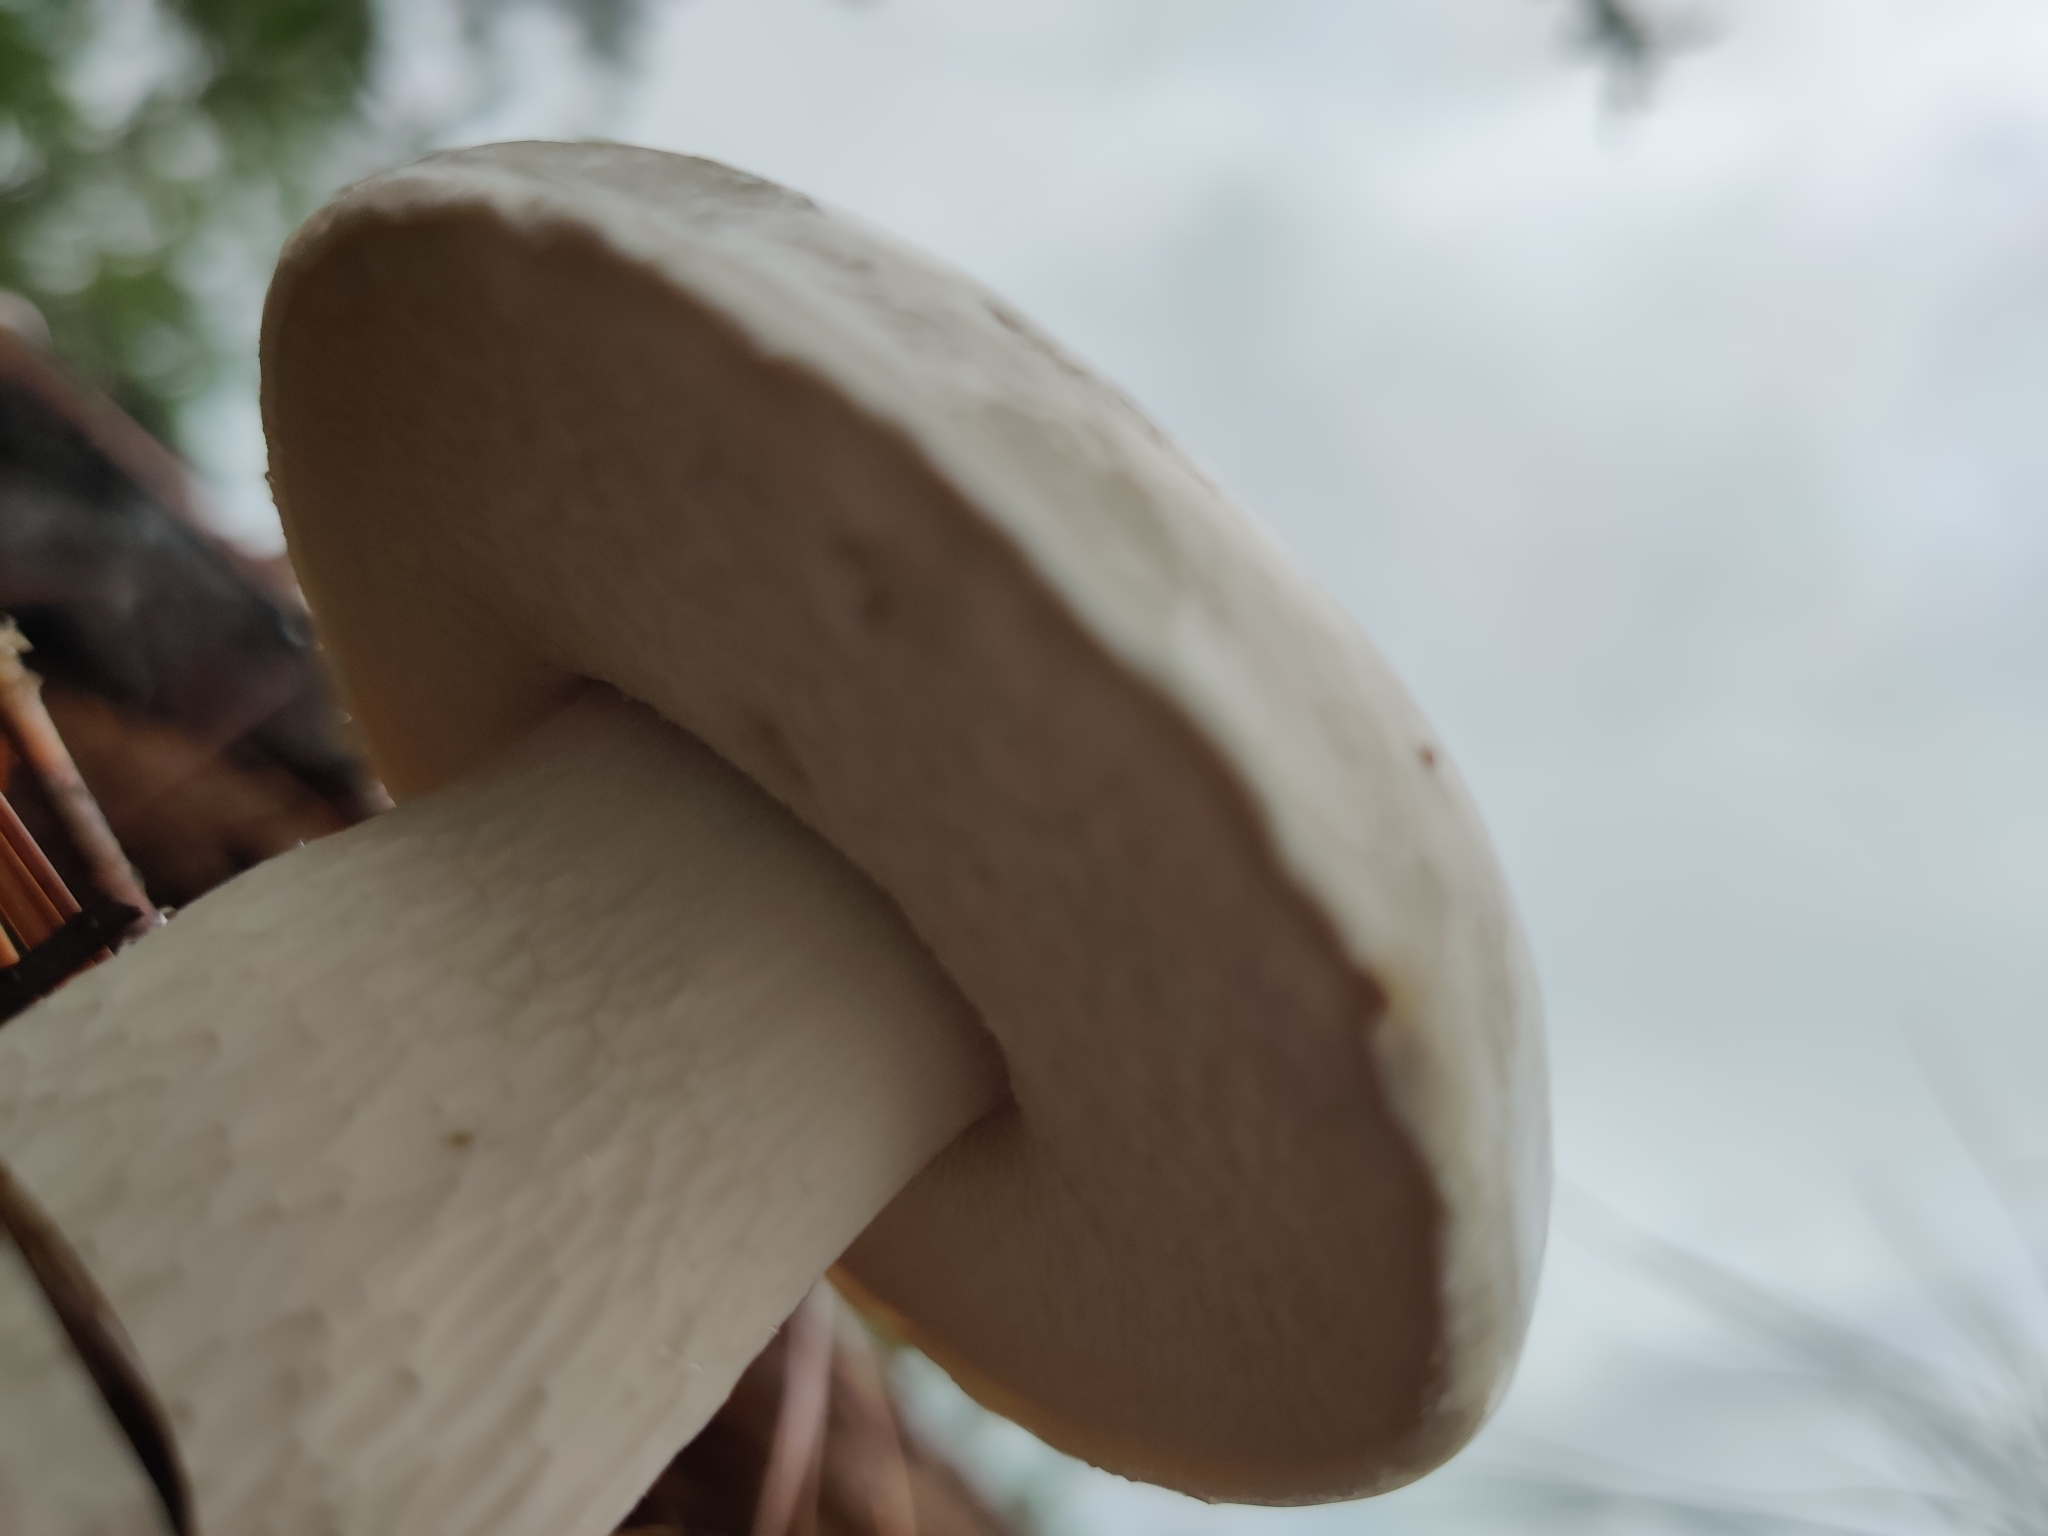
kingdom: Fungi
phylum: Basidiomycota
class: Agaricomycetes
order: Boletales
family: Boletaceae
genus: Tylopilus
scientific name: Tylopilus rhoadsiae
